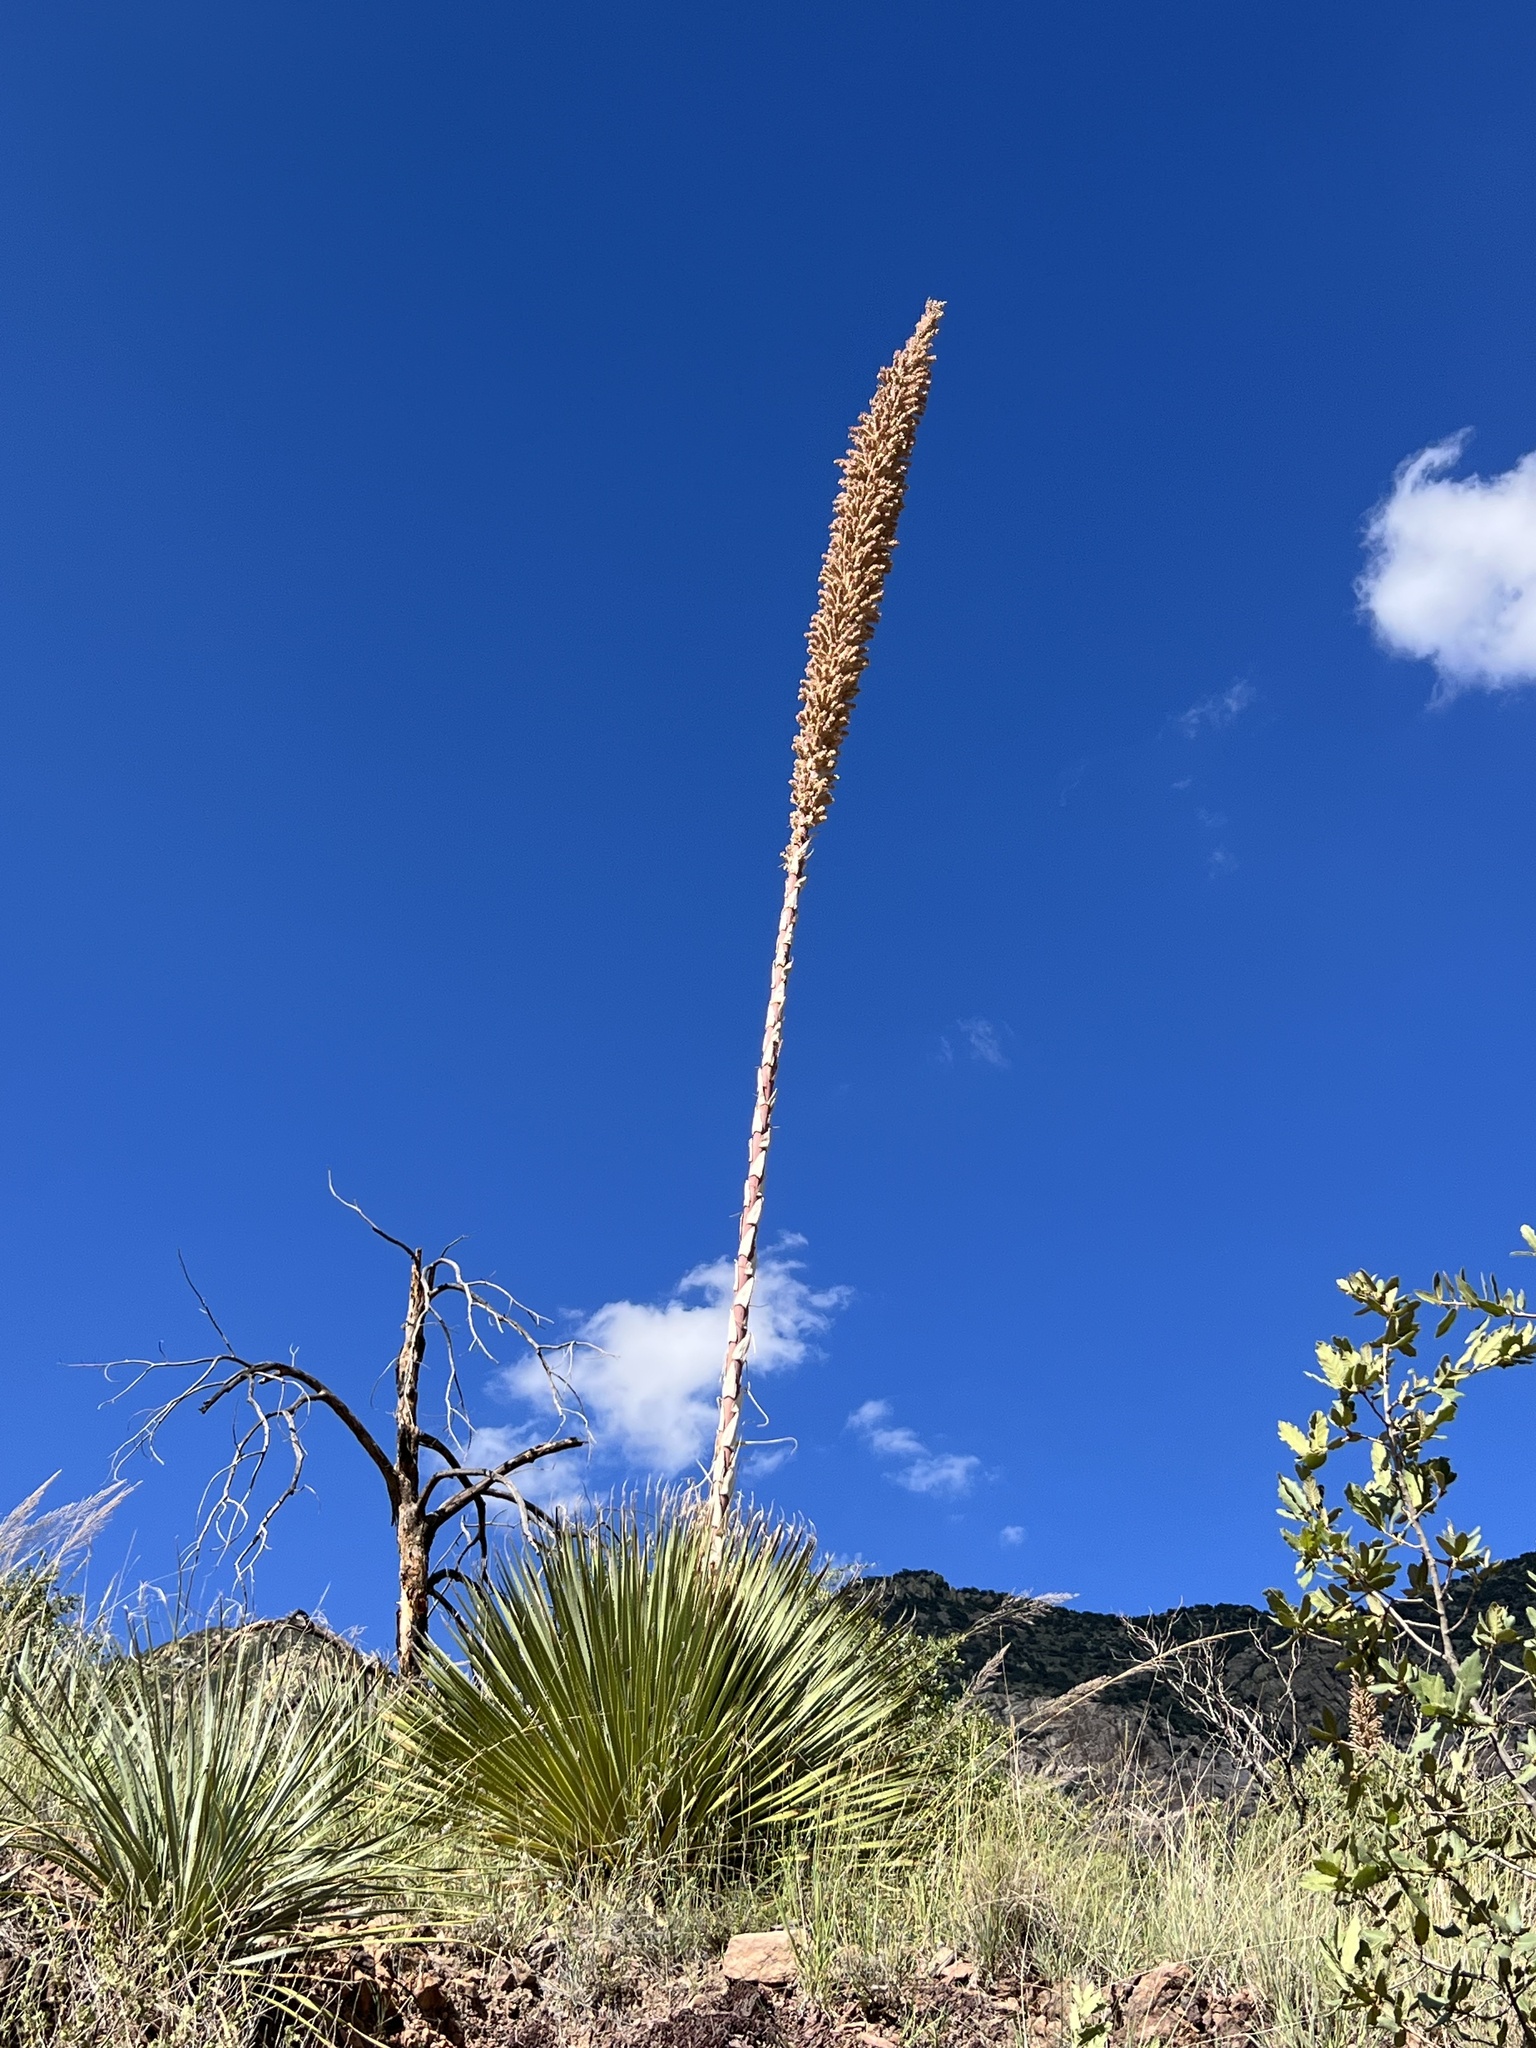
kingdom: Plantae
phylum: Tracheophyta
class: Liliopsida
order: Asparagales
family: Asparagaceae
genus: Dasylirion
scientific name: Dasylirion wheeleri
